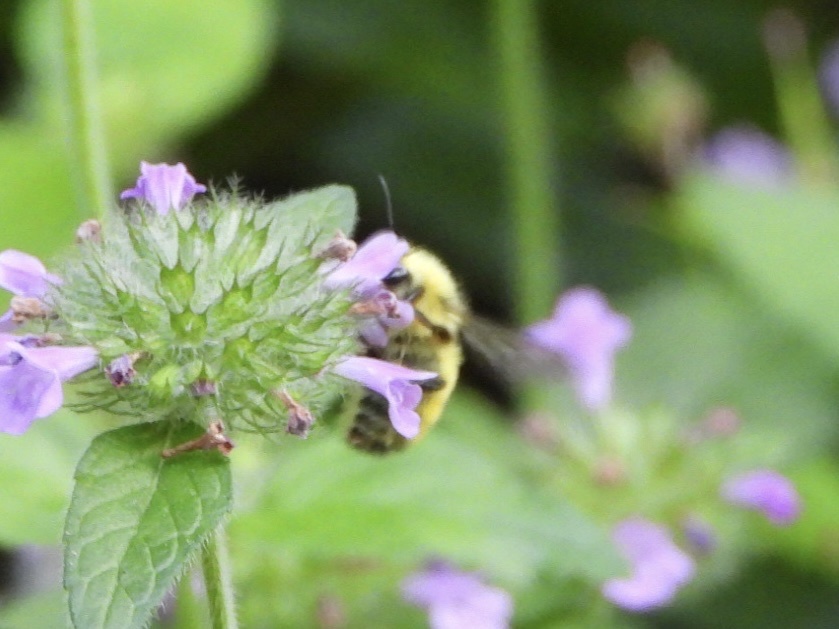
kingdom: Animalia
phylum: Arthropoda
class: Insecta
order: Hymenoptera
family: Apidae
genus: Bombus
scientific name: Bombus flavifrons
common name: Yellow head bumble bee
